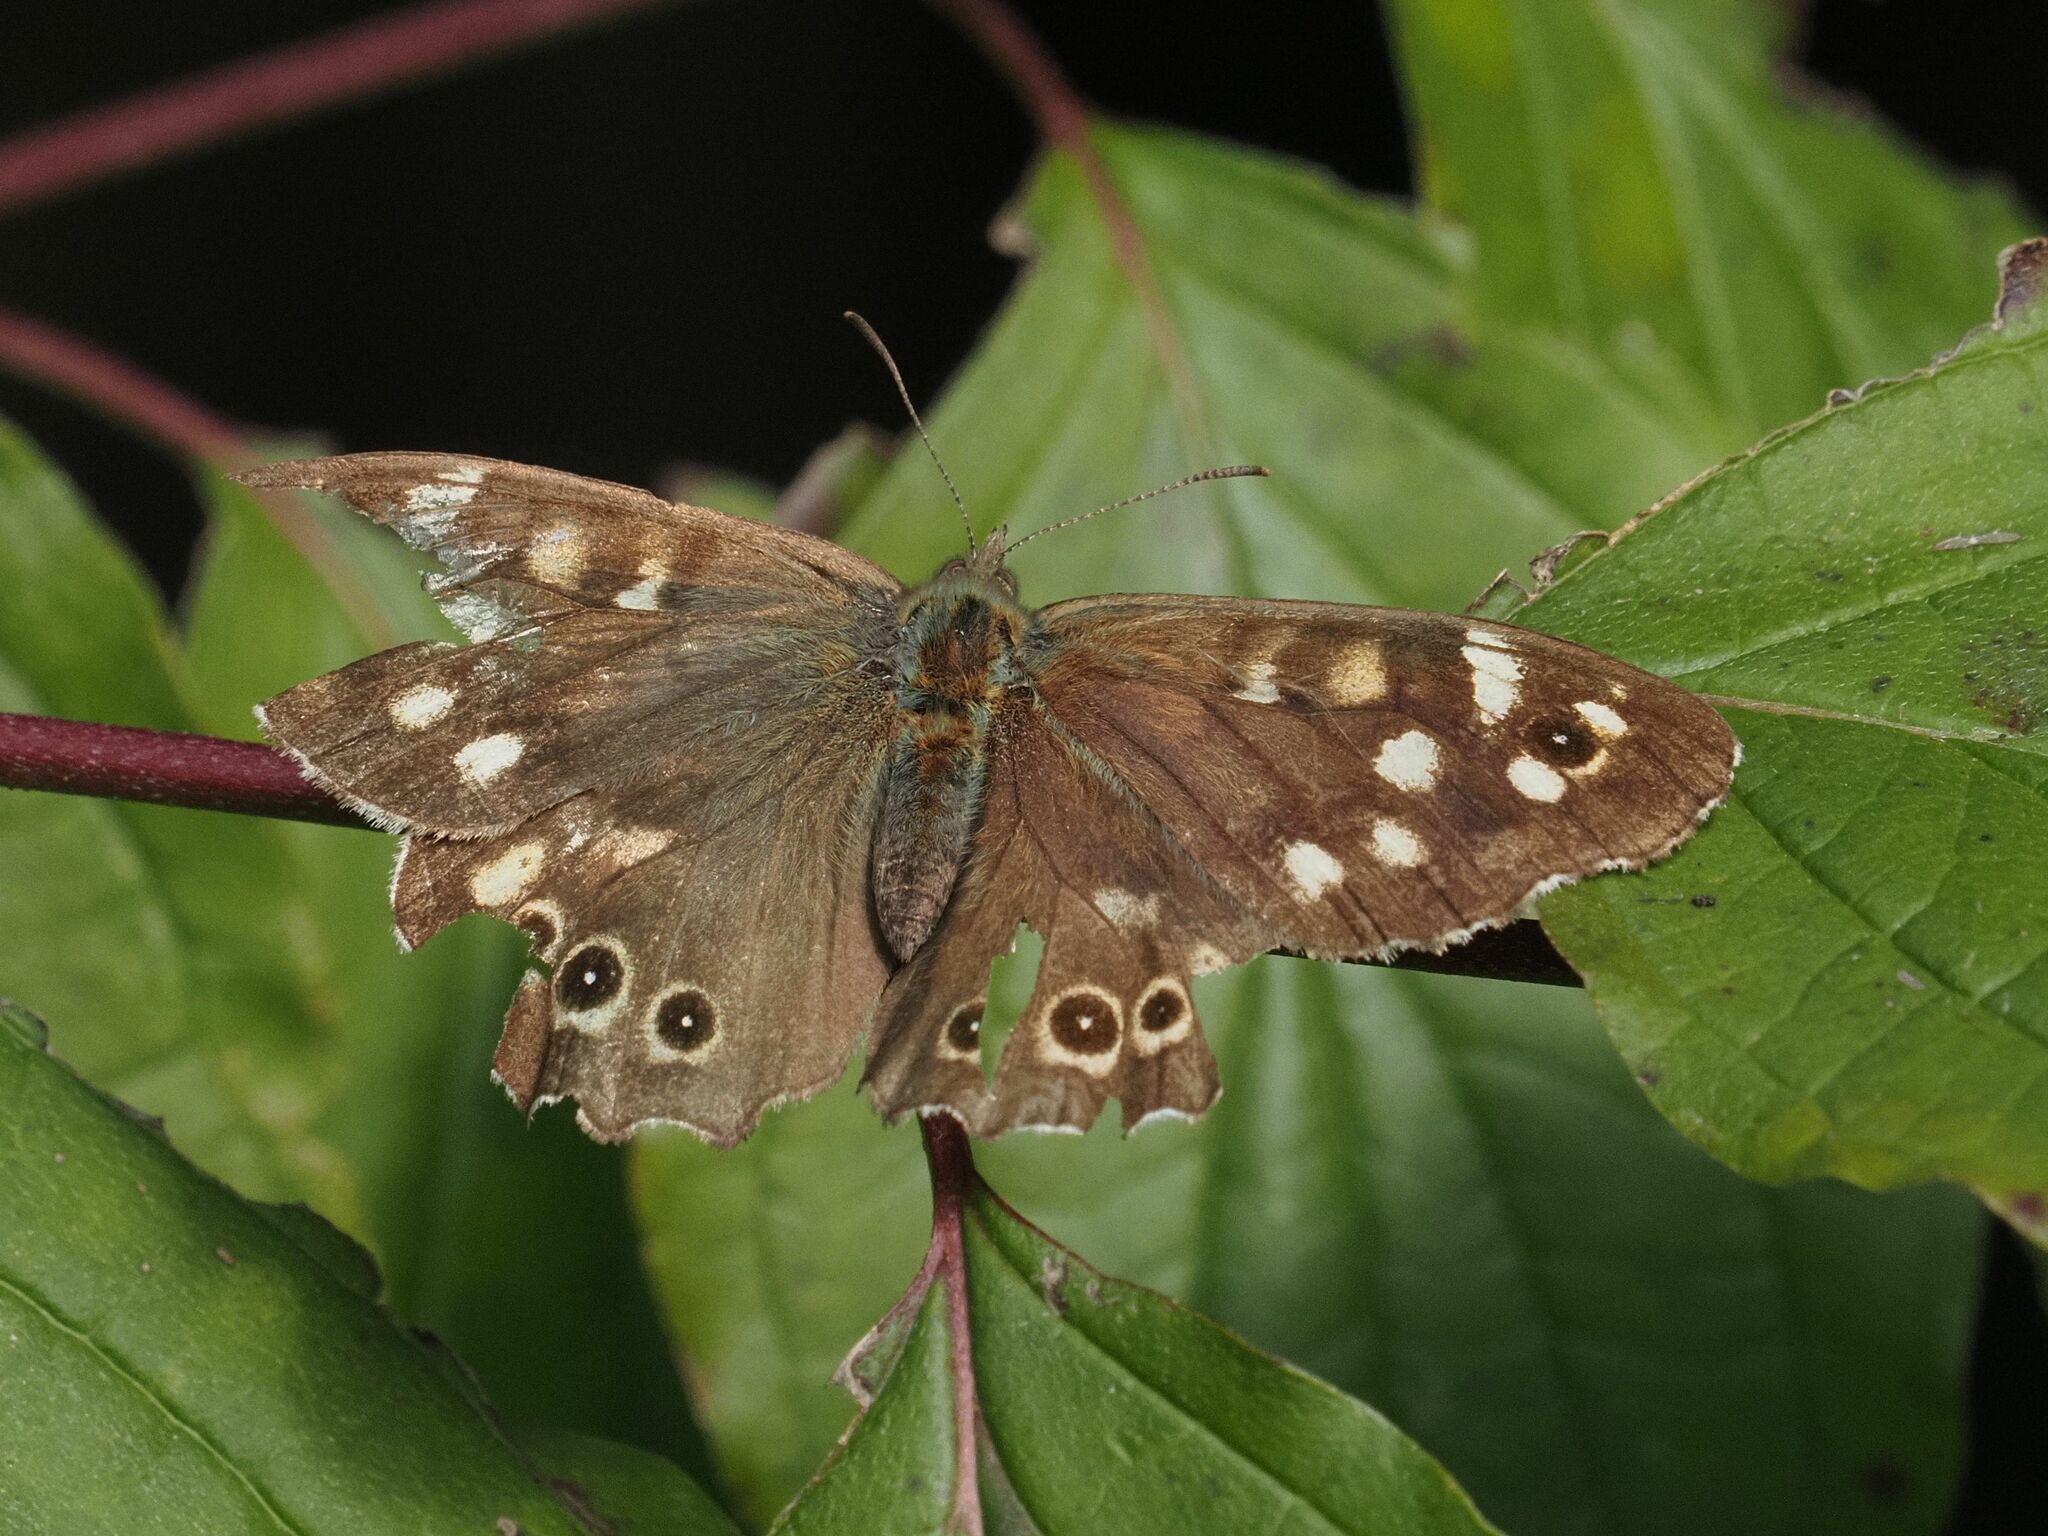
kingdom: Animalia
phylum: Arthropoda
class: Insecta
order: Lepidoptera
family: Nymphalidae
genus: Pararge
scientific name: Pararge aegeria
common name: Speckled wood
